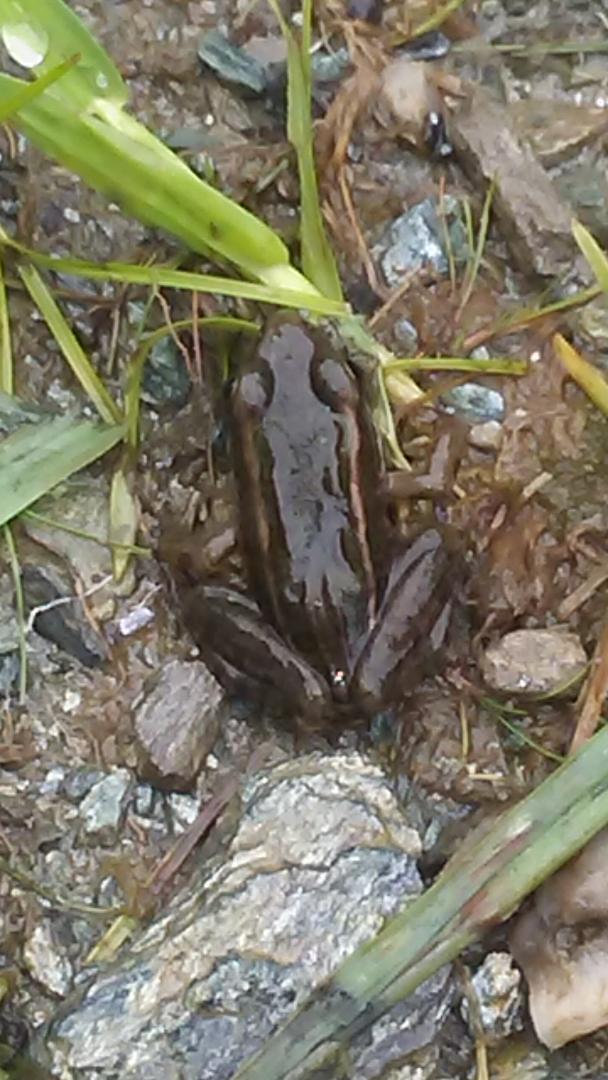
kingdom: Animalia
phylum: Chordata
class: Amphibia
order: Anura
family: Ranidae
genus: Lithobates
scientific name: Lithobates pipiens
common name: Northern leopard frog
